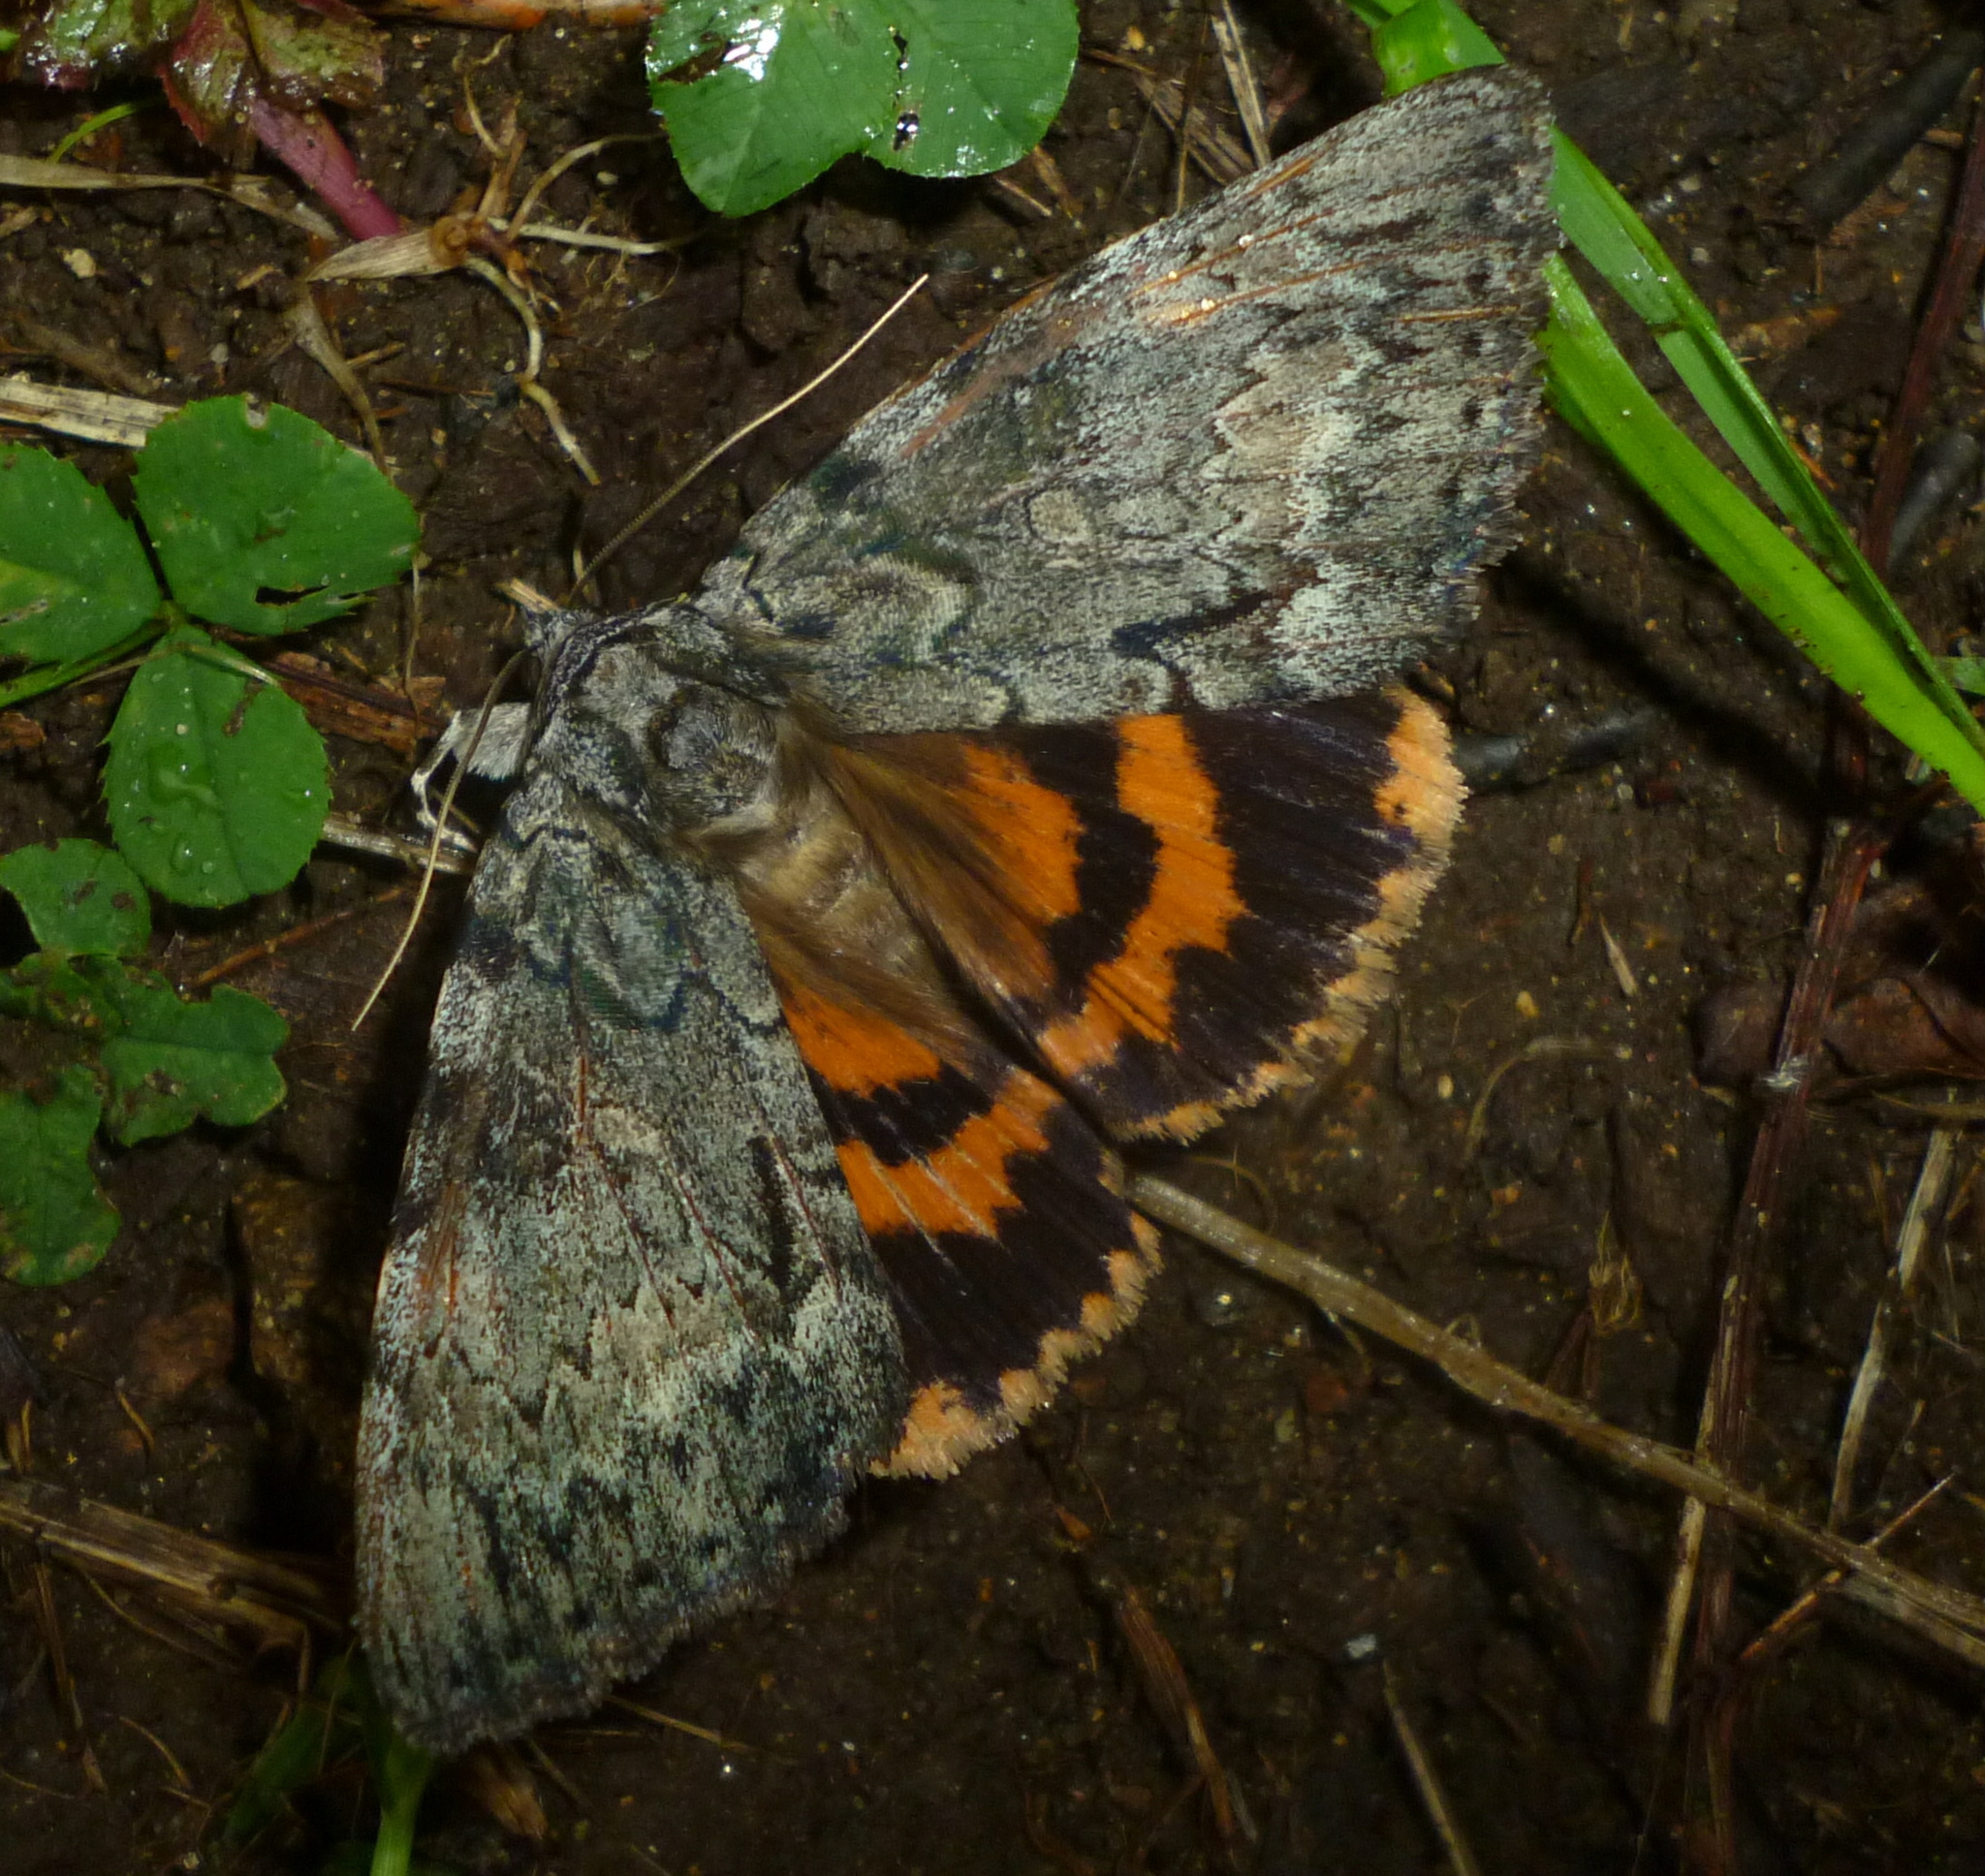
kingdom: Animalia
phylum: Arthropoda
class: Insecta
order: Lepidoptera
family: Erebidae
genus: Catocala
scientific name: Catocala palaeogama
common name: Oldwife underwing
